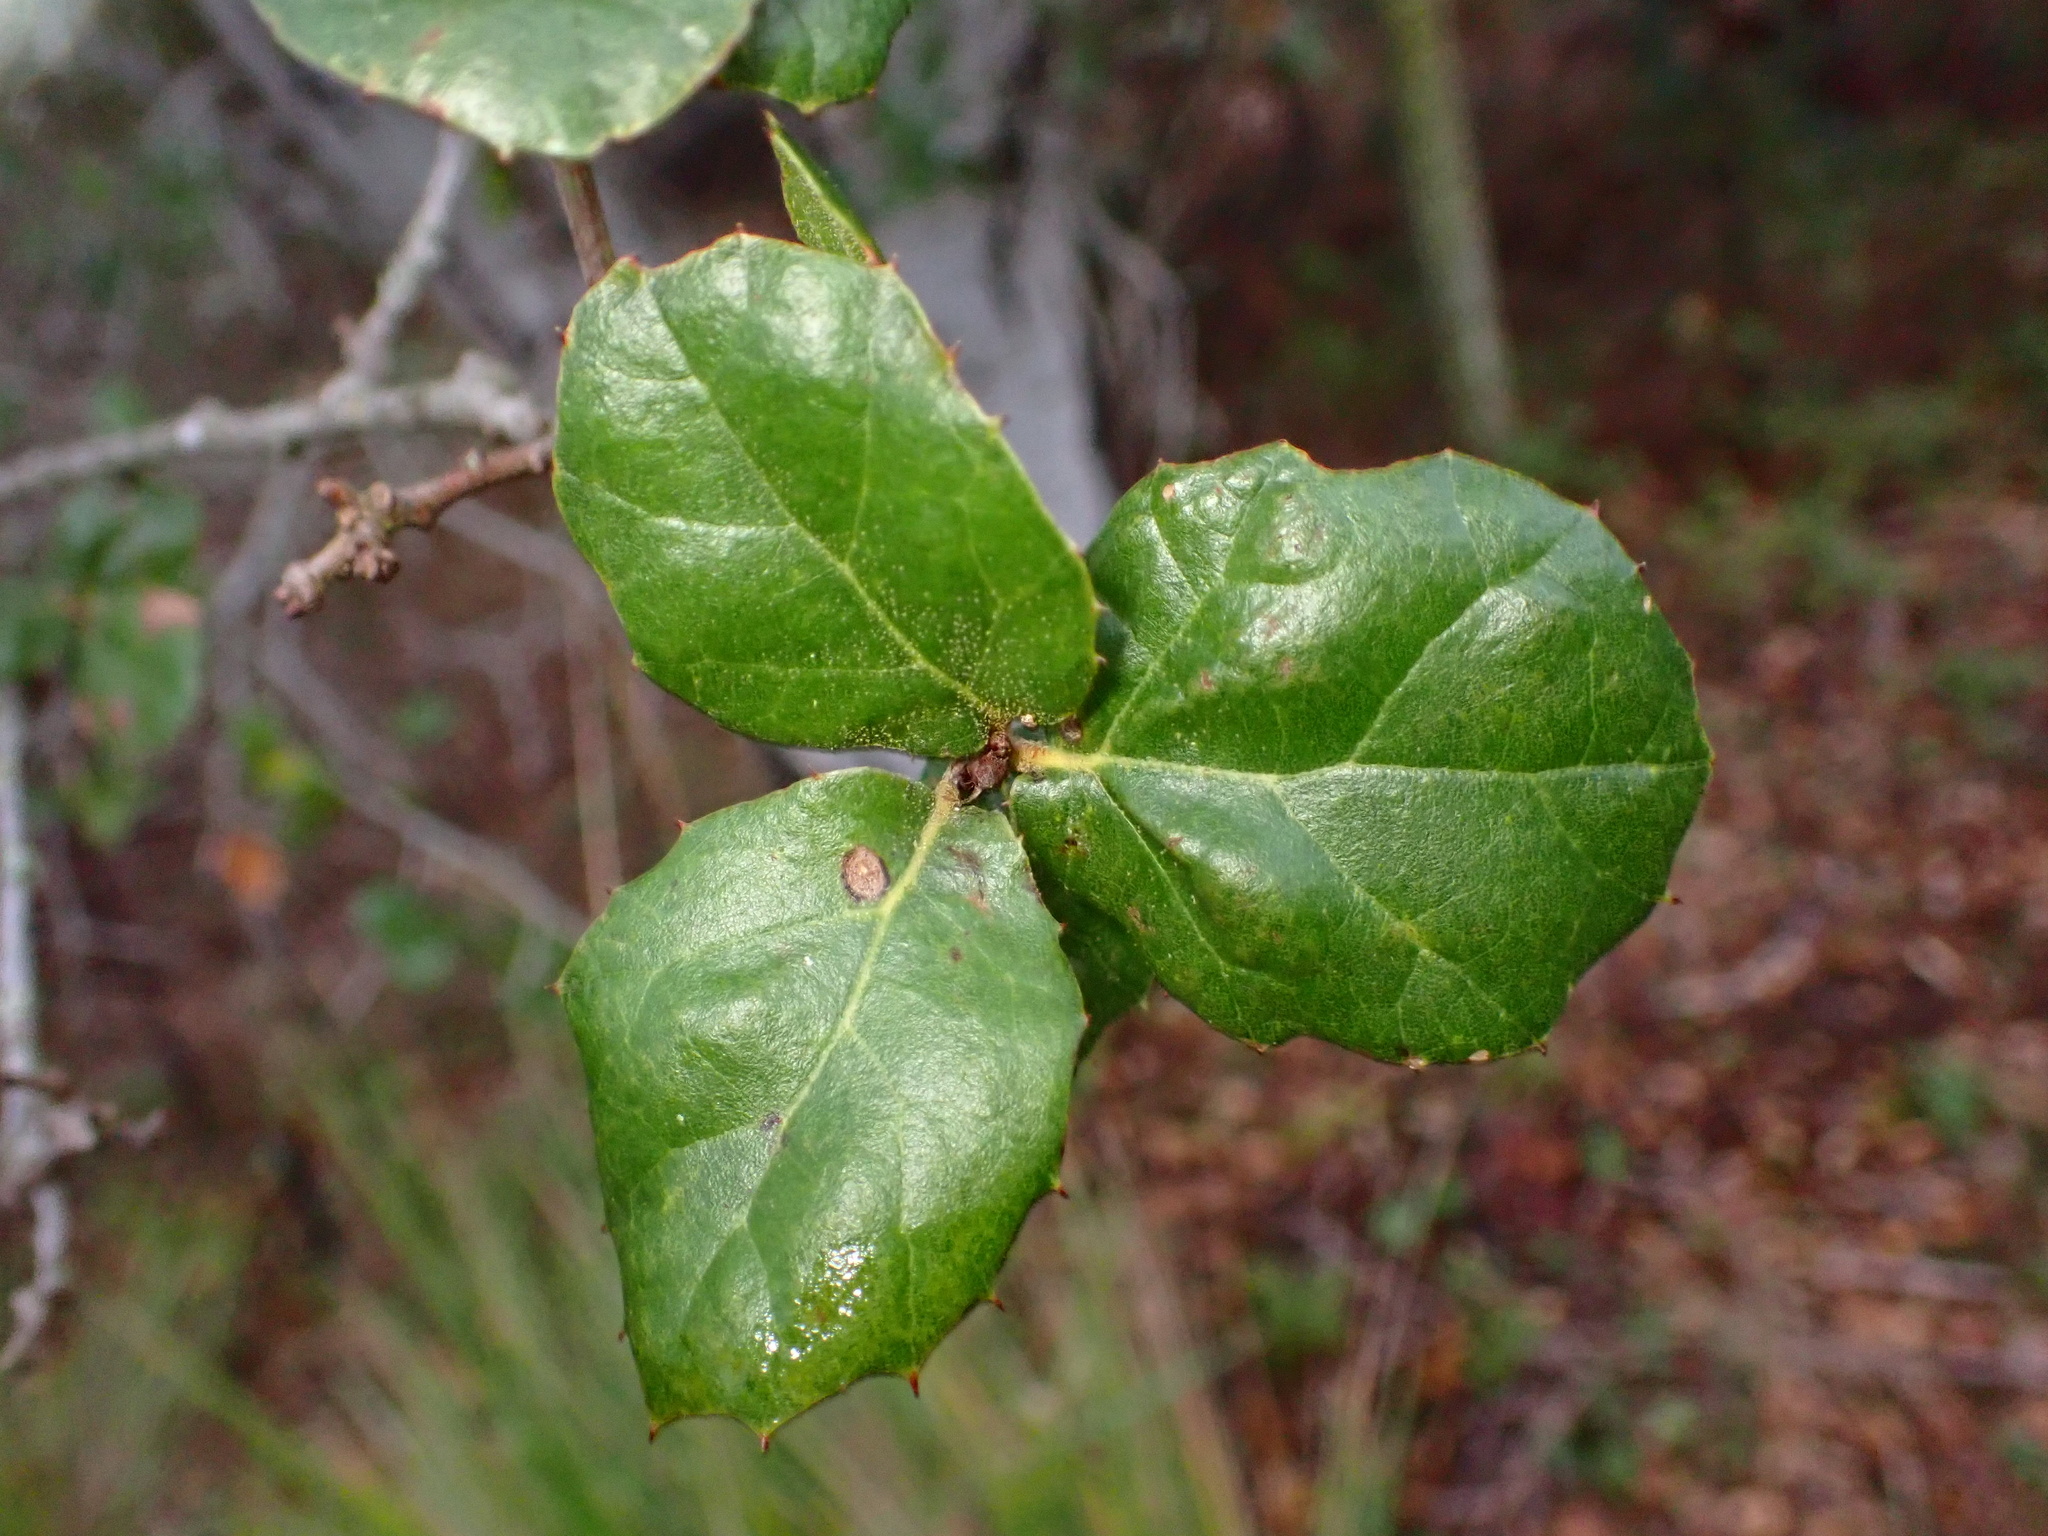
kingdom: Animalia
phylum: Arthropoda
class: Insecta
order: Hymenoptera
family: Cynipidae
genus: Amphibolips
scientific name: Amphibolips quercuspomiformis
